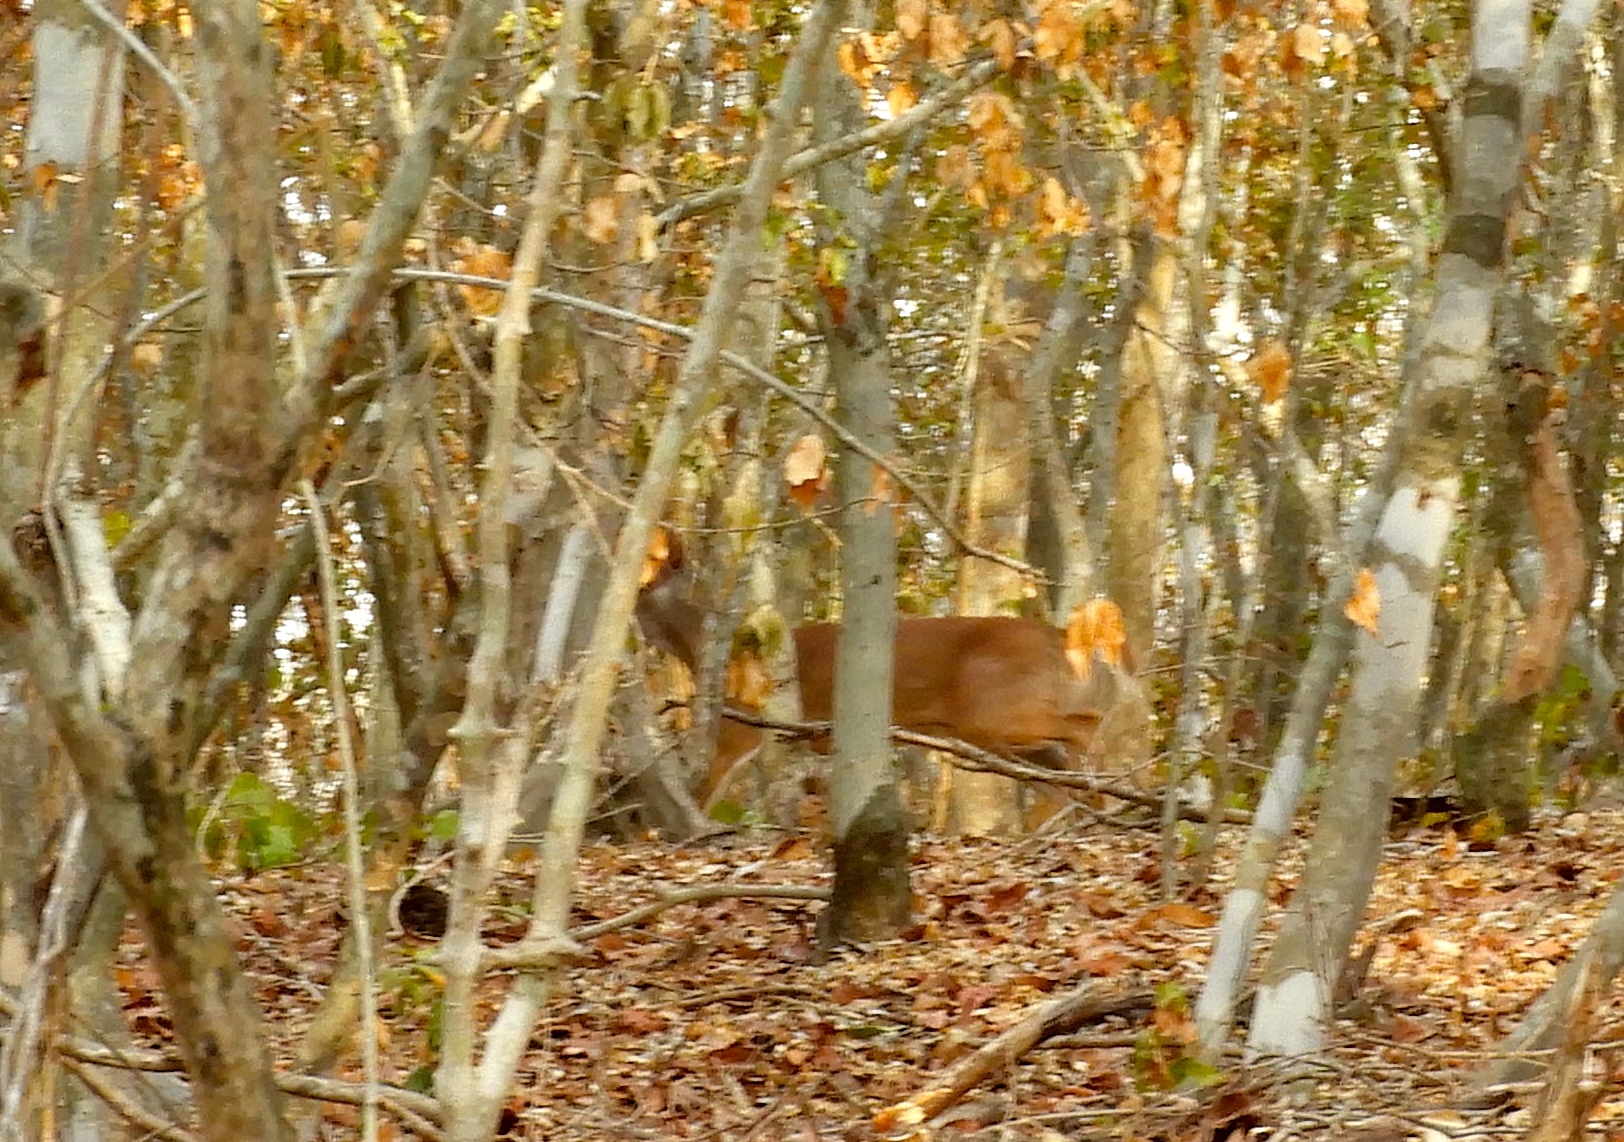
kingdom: Animalia
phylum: Chordata
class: Mammalia
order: Artiodactyla
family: Cervidae
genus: Odocoileus
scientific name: Odocoileus virginianus
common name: White-tailed deer
